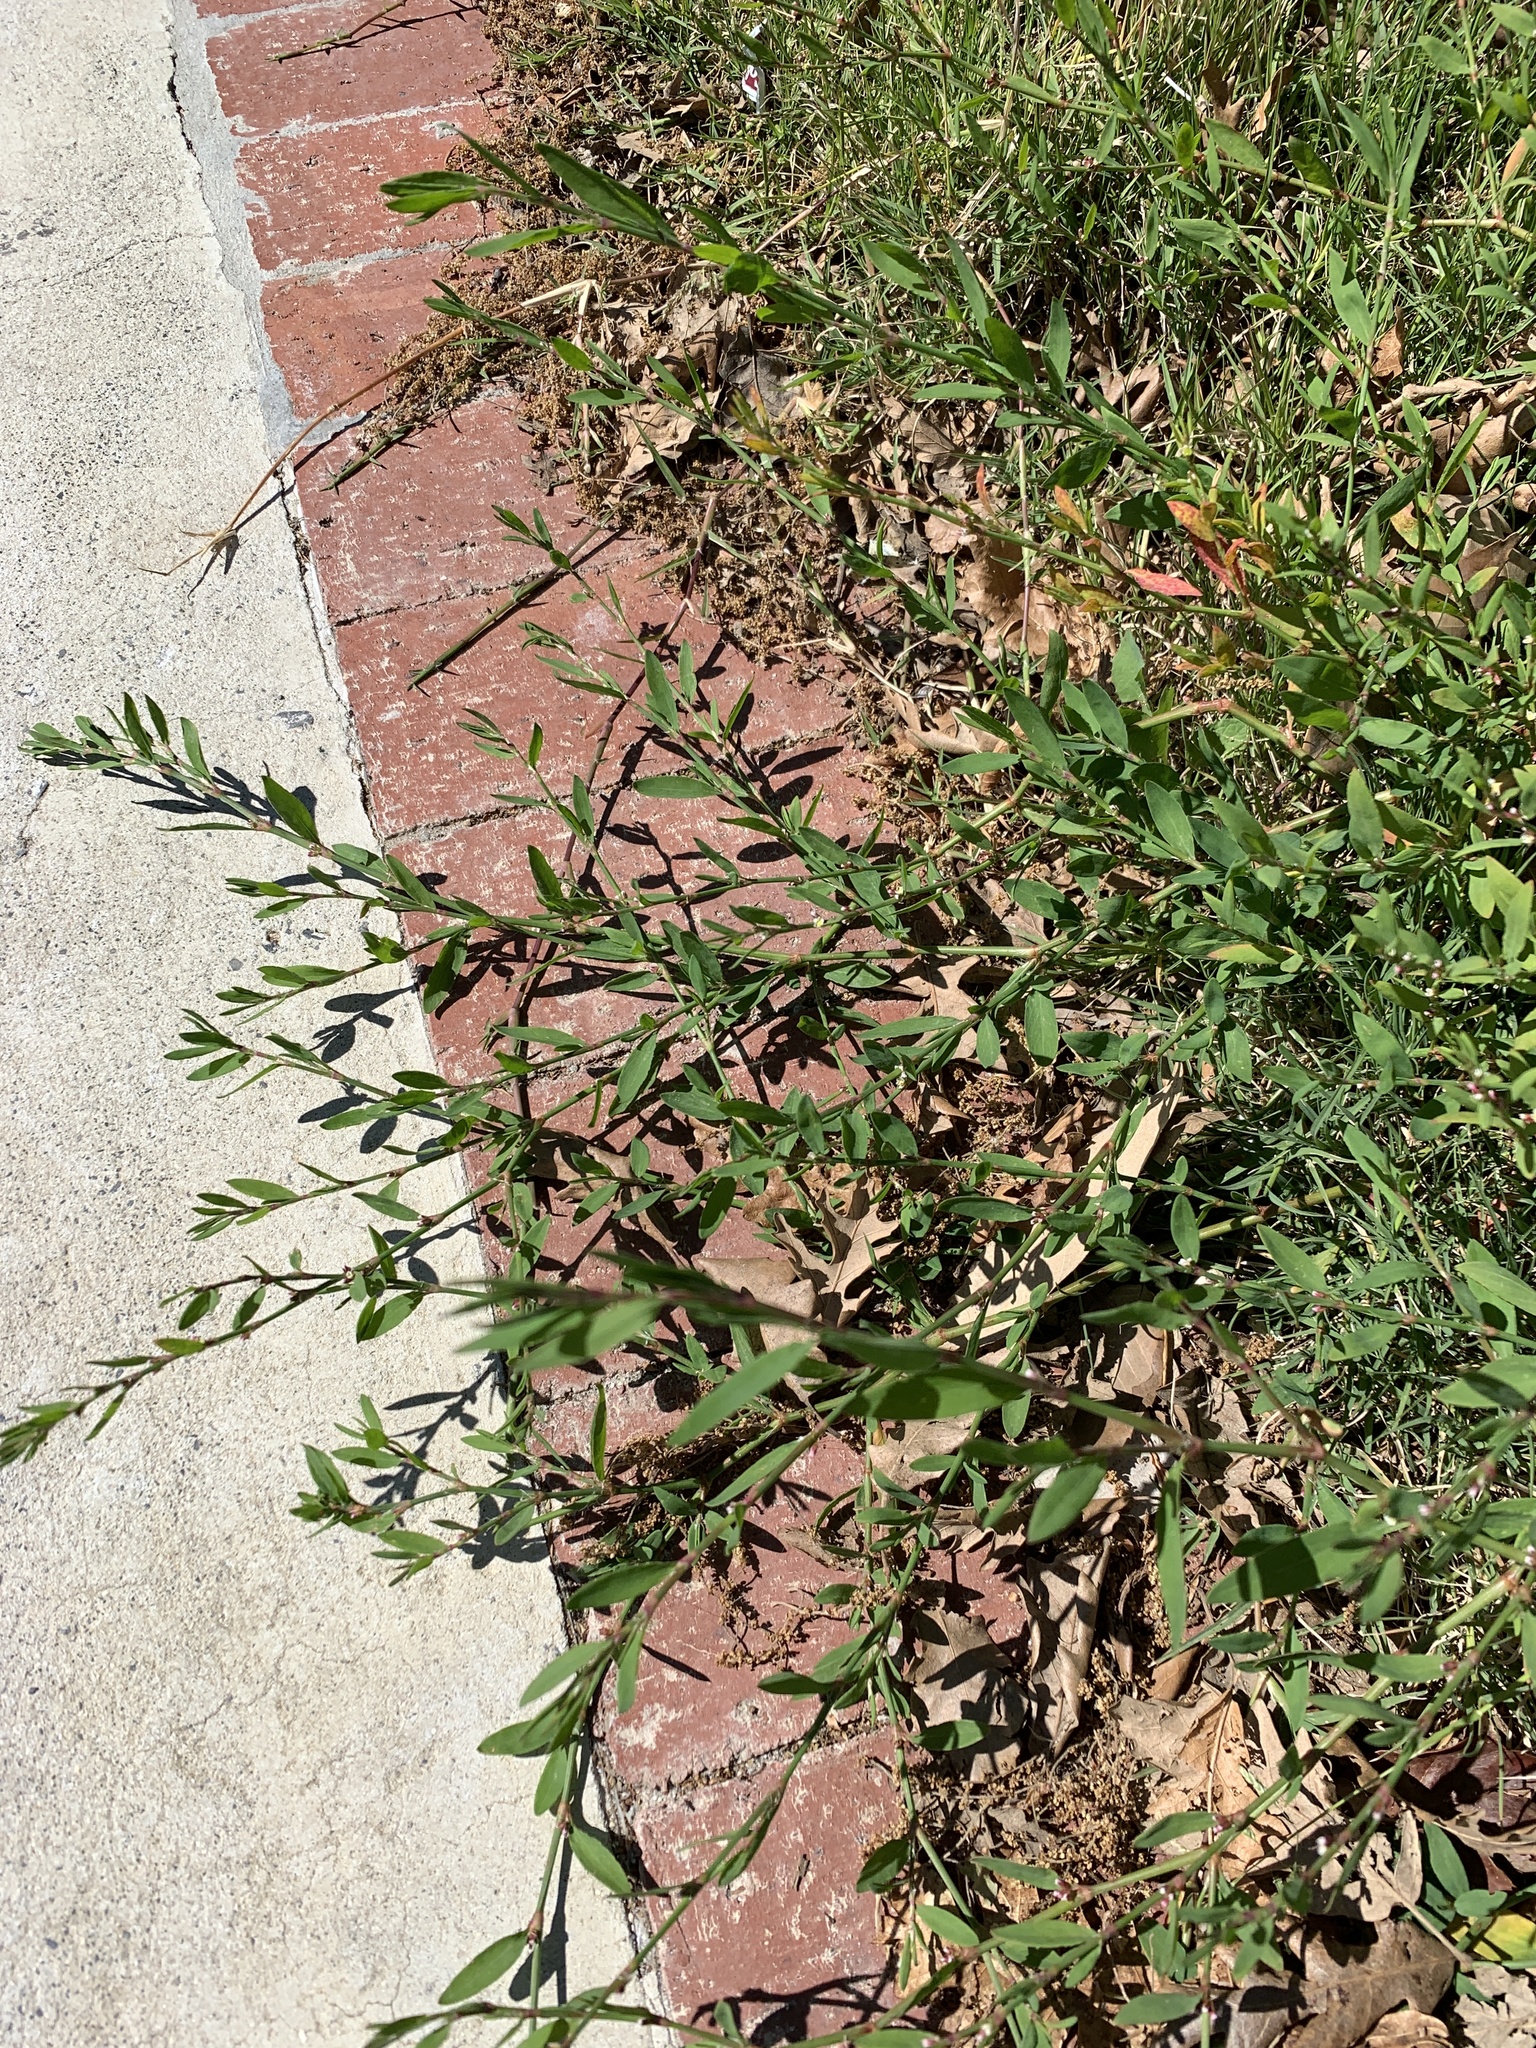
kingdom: Plantae
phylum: Tracheophyta
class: Magnoliopsida
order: Caryophyllales
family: Polygonaceae
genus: Polygonum
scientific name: Polygonum aviculare
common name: Prostrate knotweed
